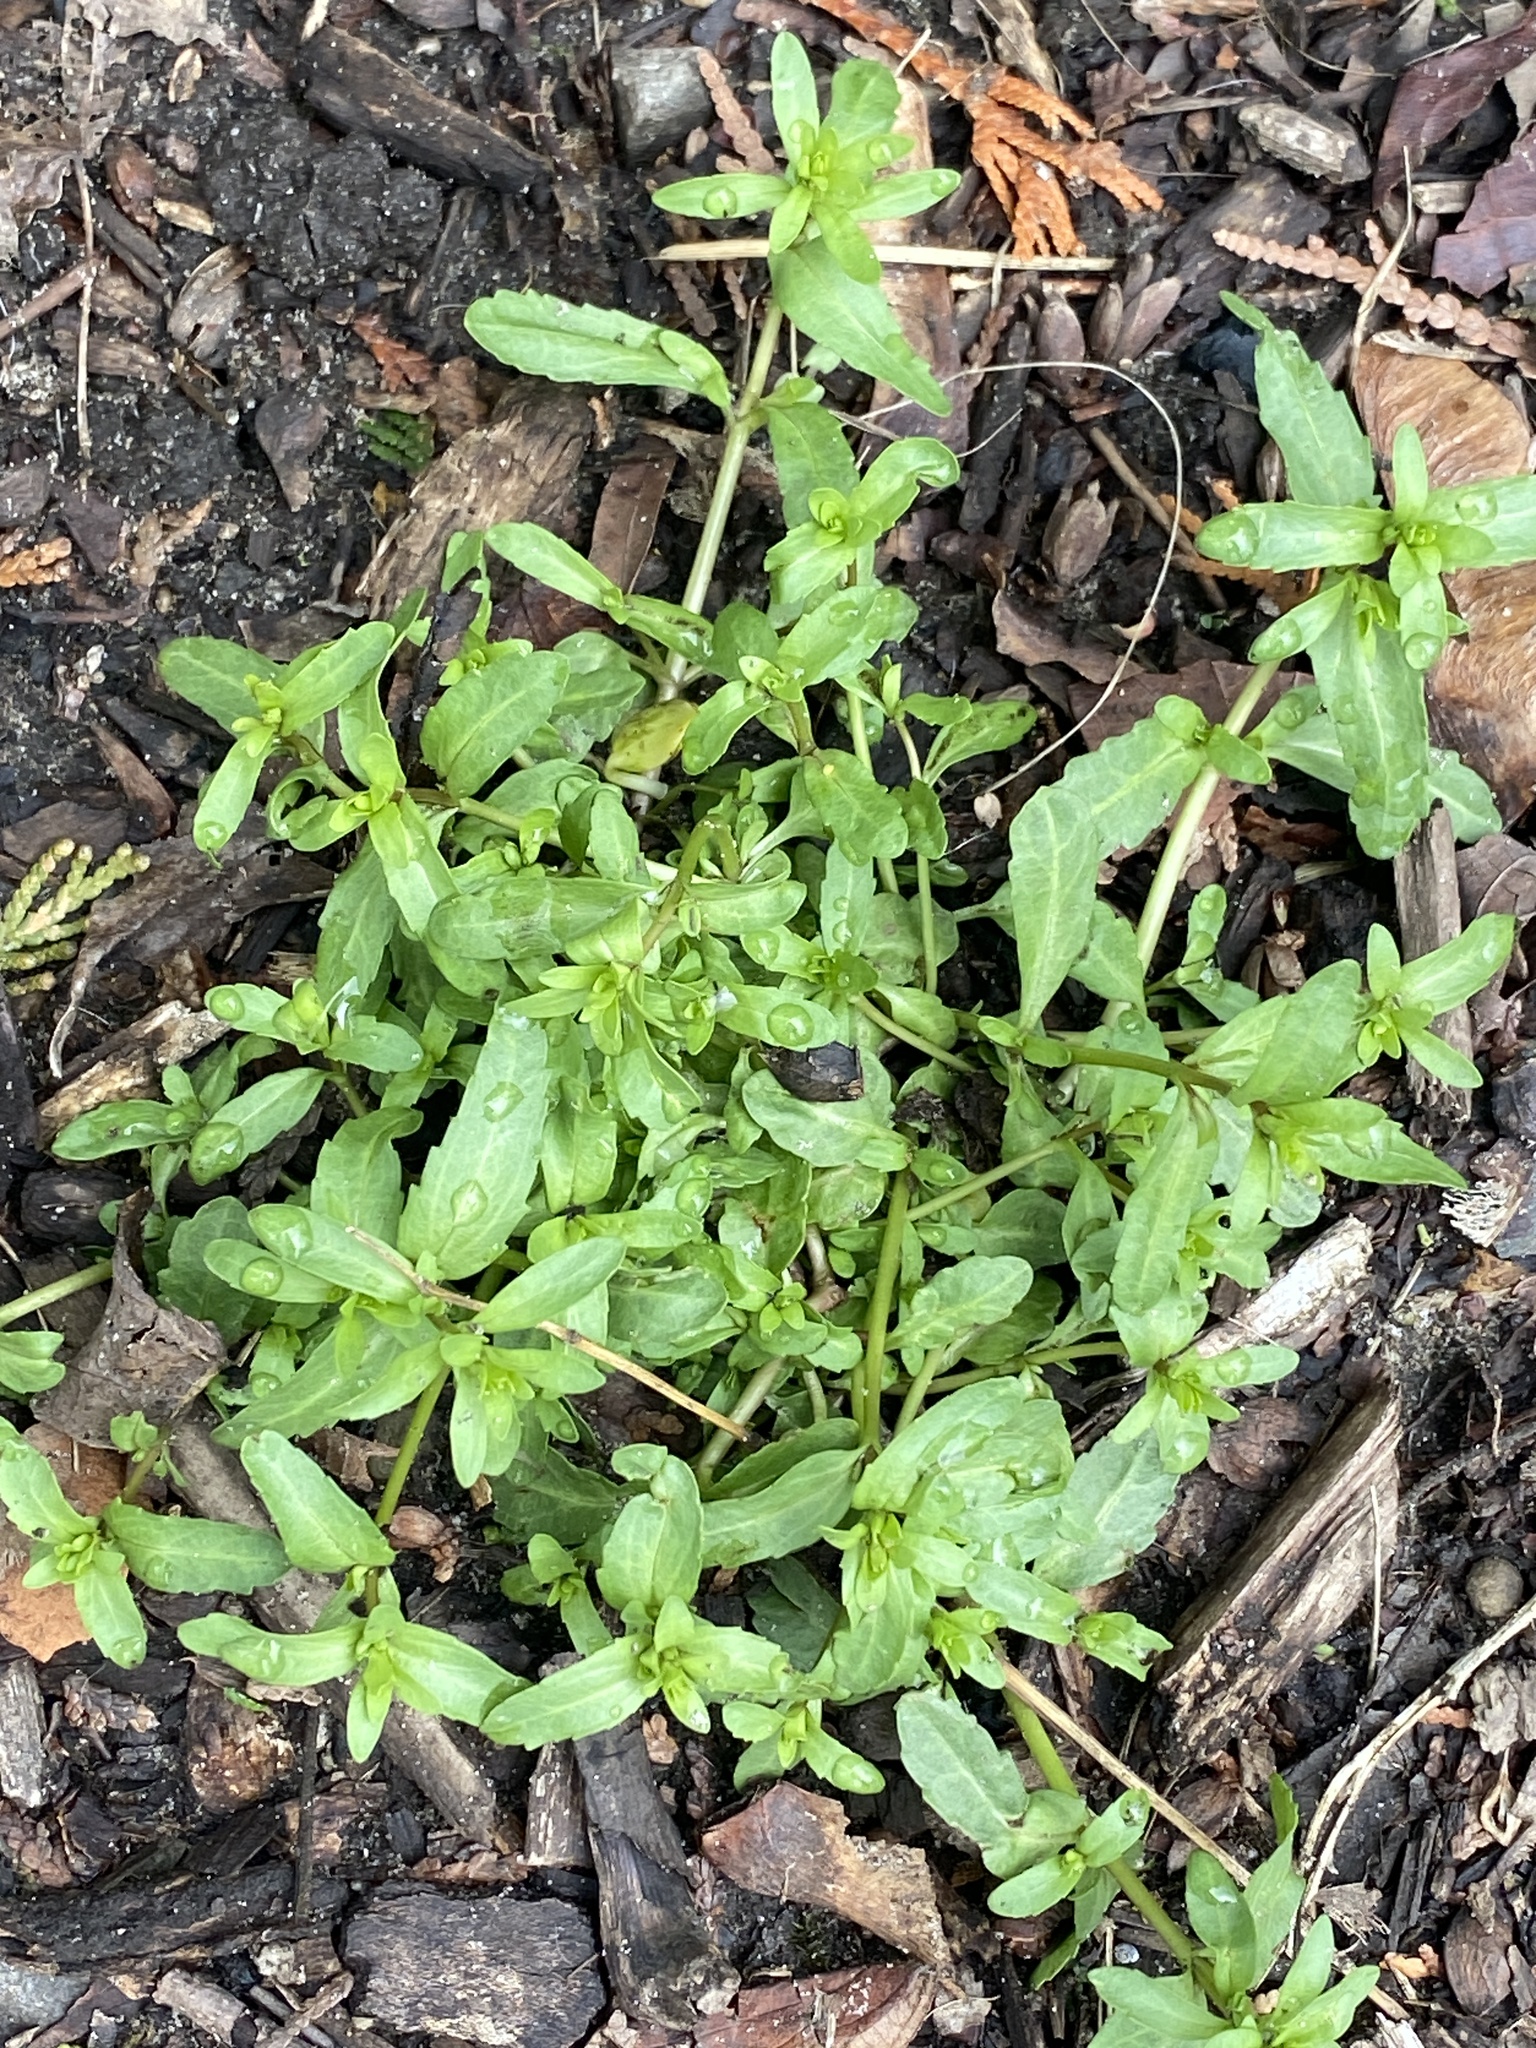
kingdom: Plantae
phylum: Tracheophyta
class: Magnoliopsida
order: Lamiales
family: Plantaginaceae
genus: Veronica
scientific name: Veronica peregrina
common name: Neckweed
